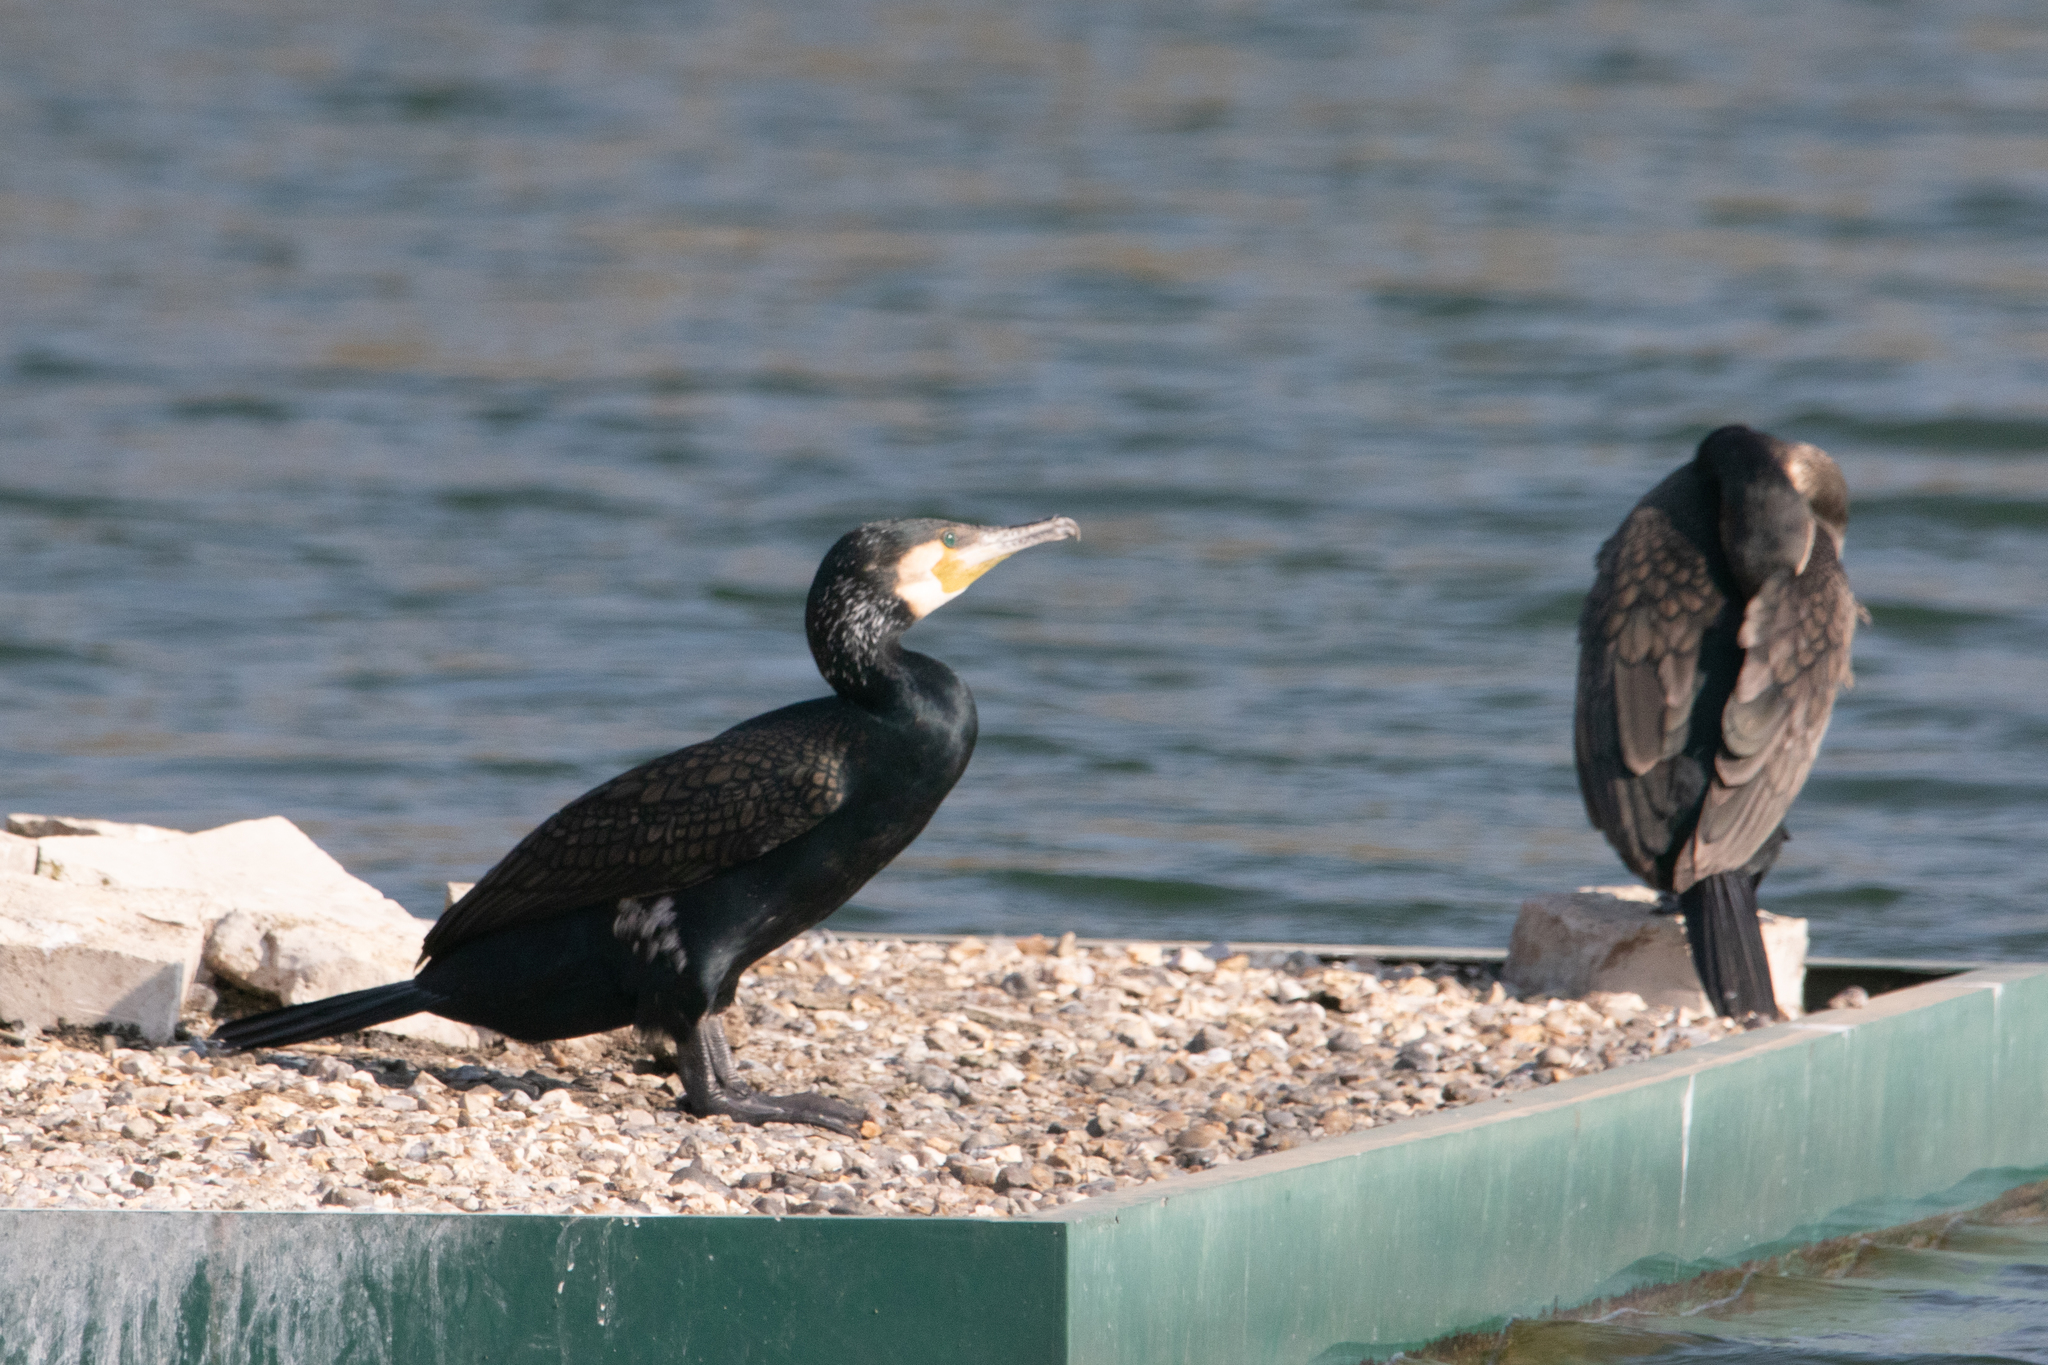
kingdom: Animalia
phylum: Chordata
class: Aves
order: Suliformes
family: Phalacrocoracidae
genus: Phalacrocorax
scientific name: Phalacrocorax carbo
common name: Great cormorant
